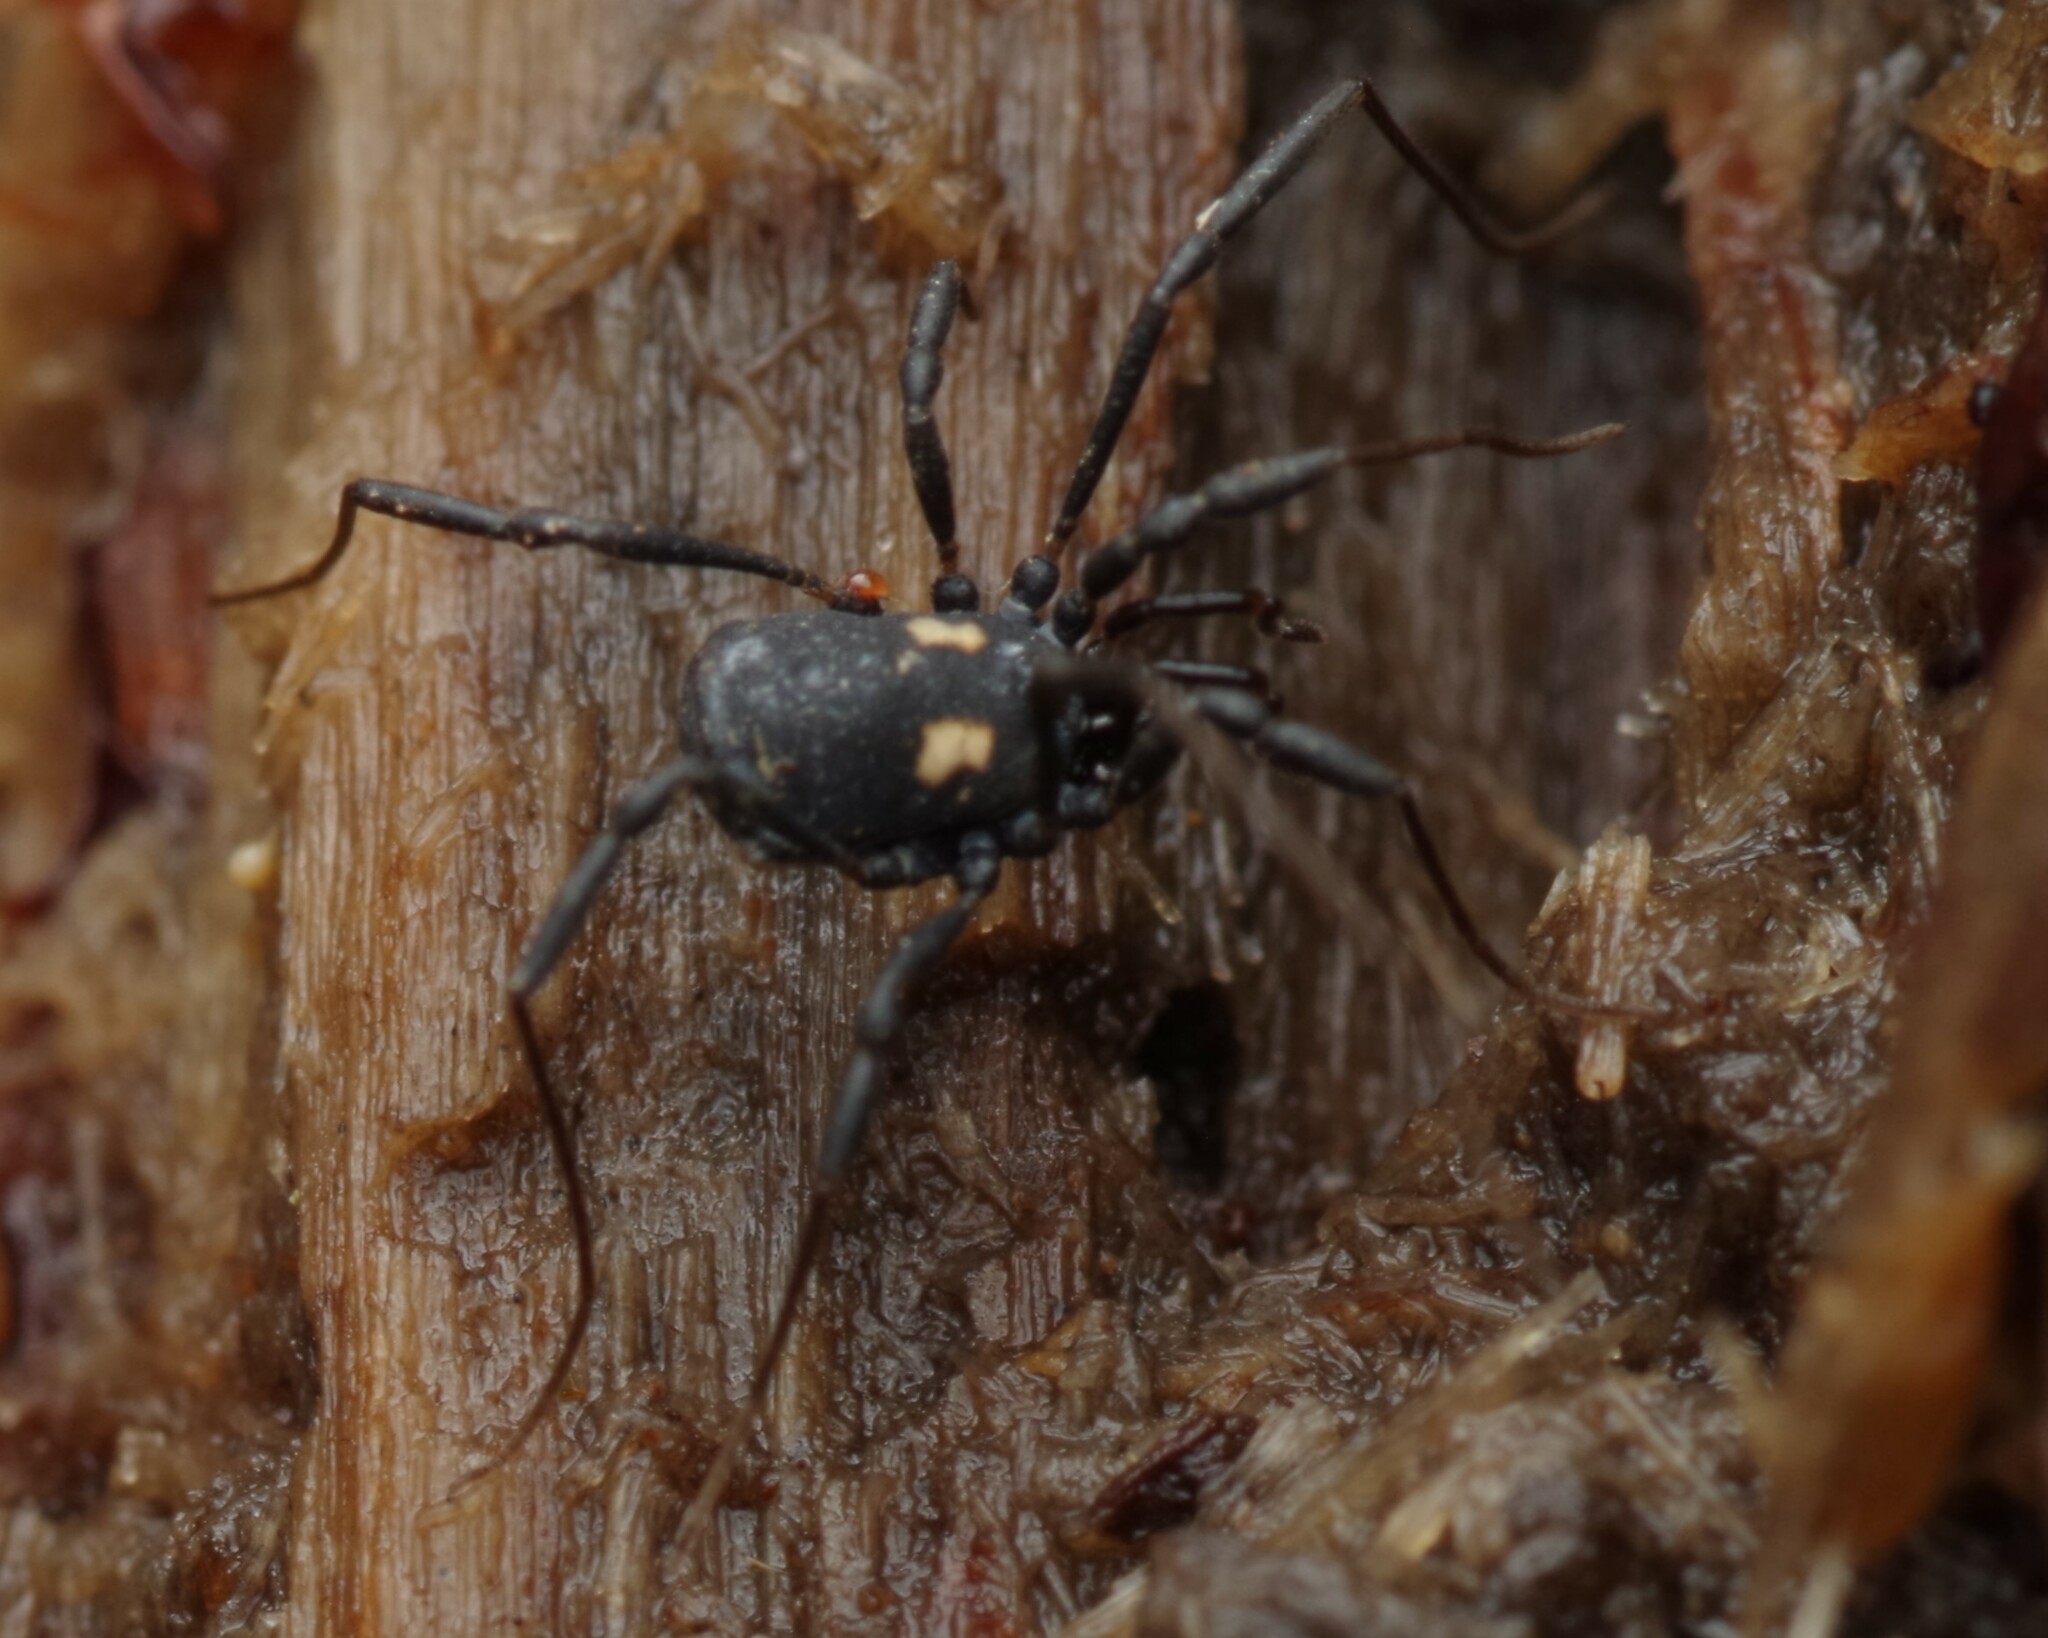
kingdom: Animalia
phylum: Arthropoda
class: Arachnida
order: Opiliones
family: Nemastomatidae
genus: Nemastoma
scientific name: Nemastoma bimaculatum
